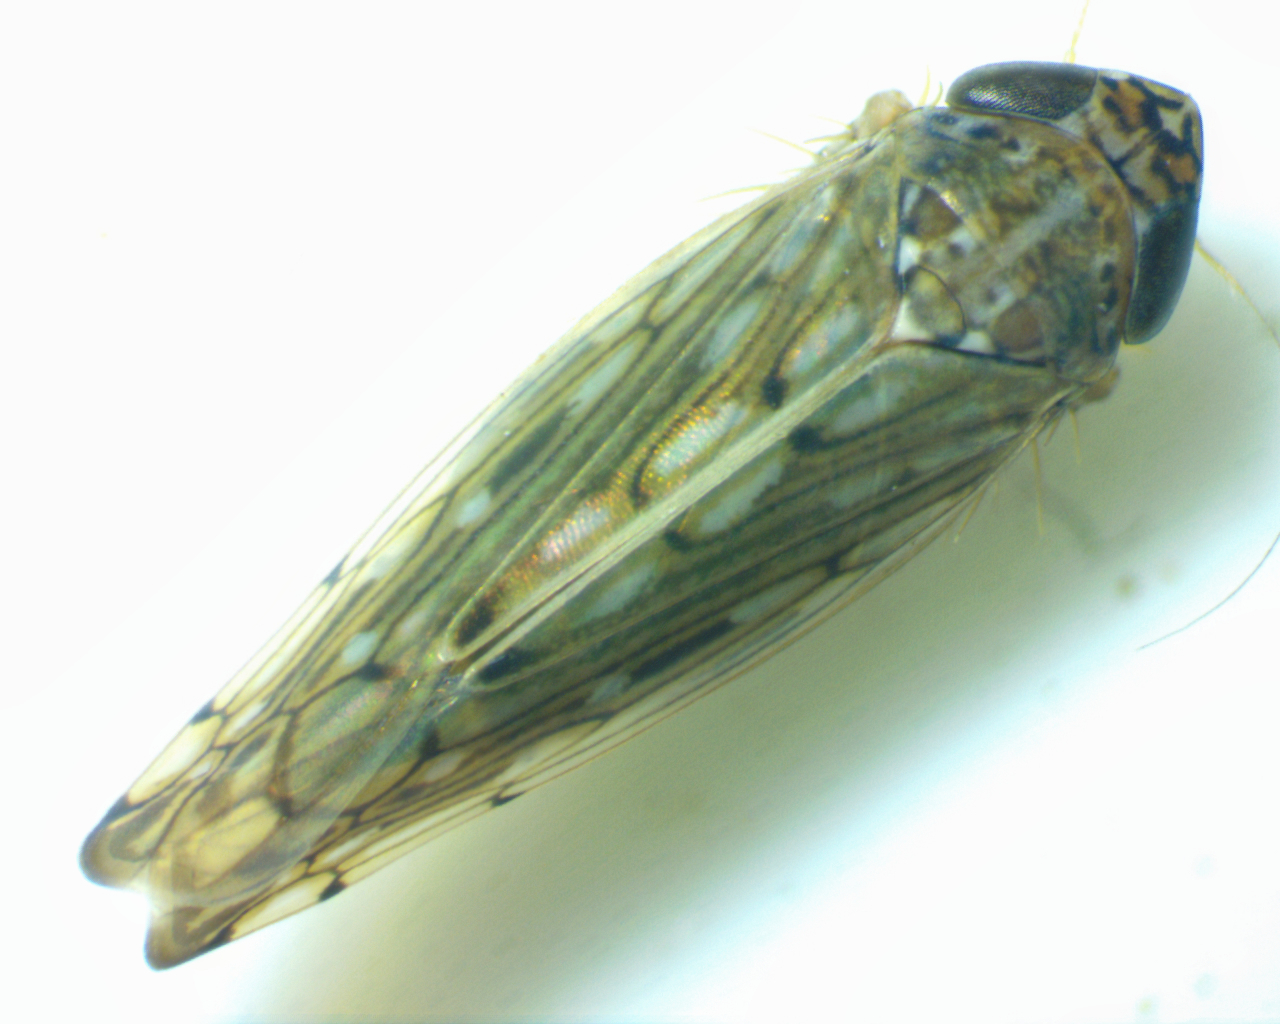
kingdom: Animalia
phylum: Arthropoda
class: Insecta
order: Hemiptera
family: Cicadellidae
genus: Osbornellus
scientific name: Osbornellus clarus
